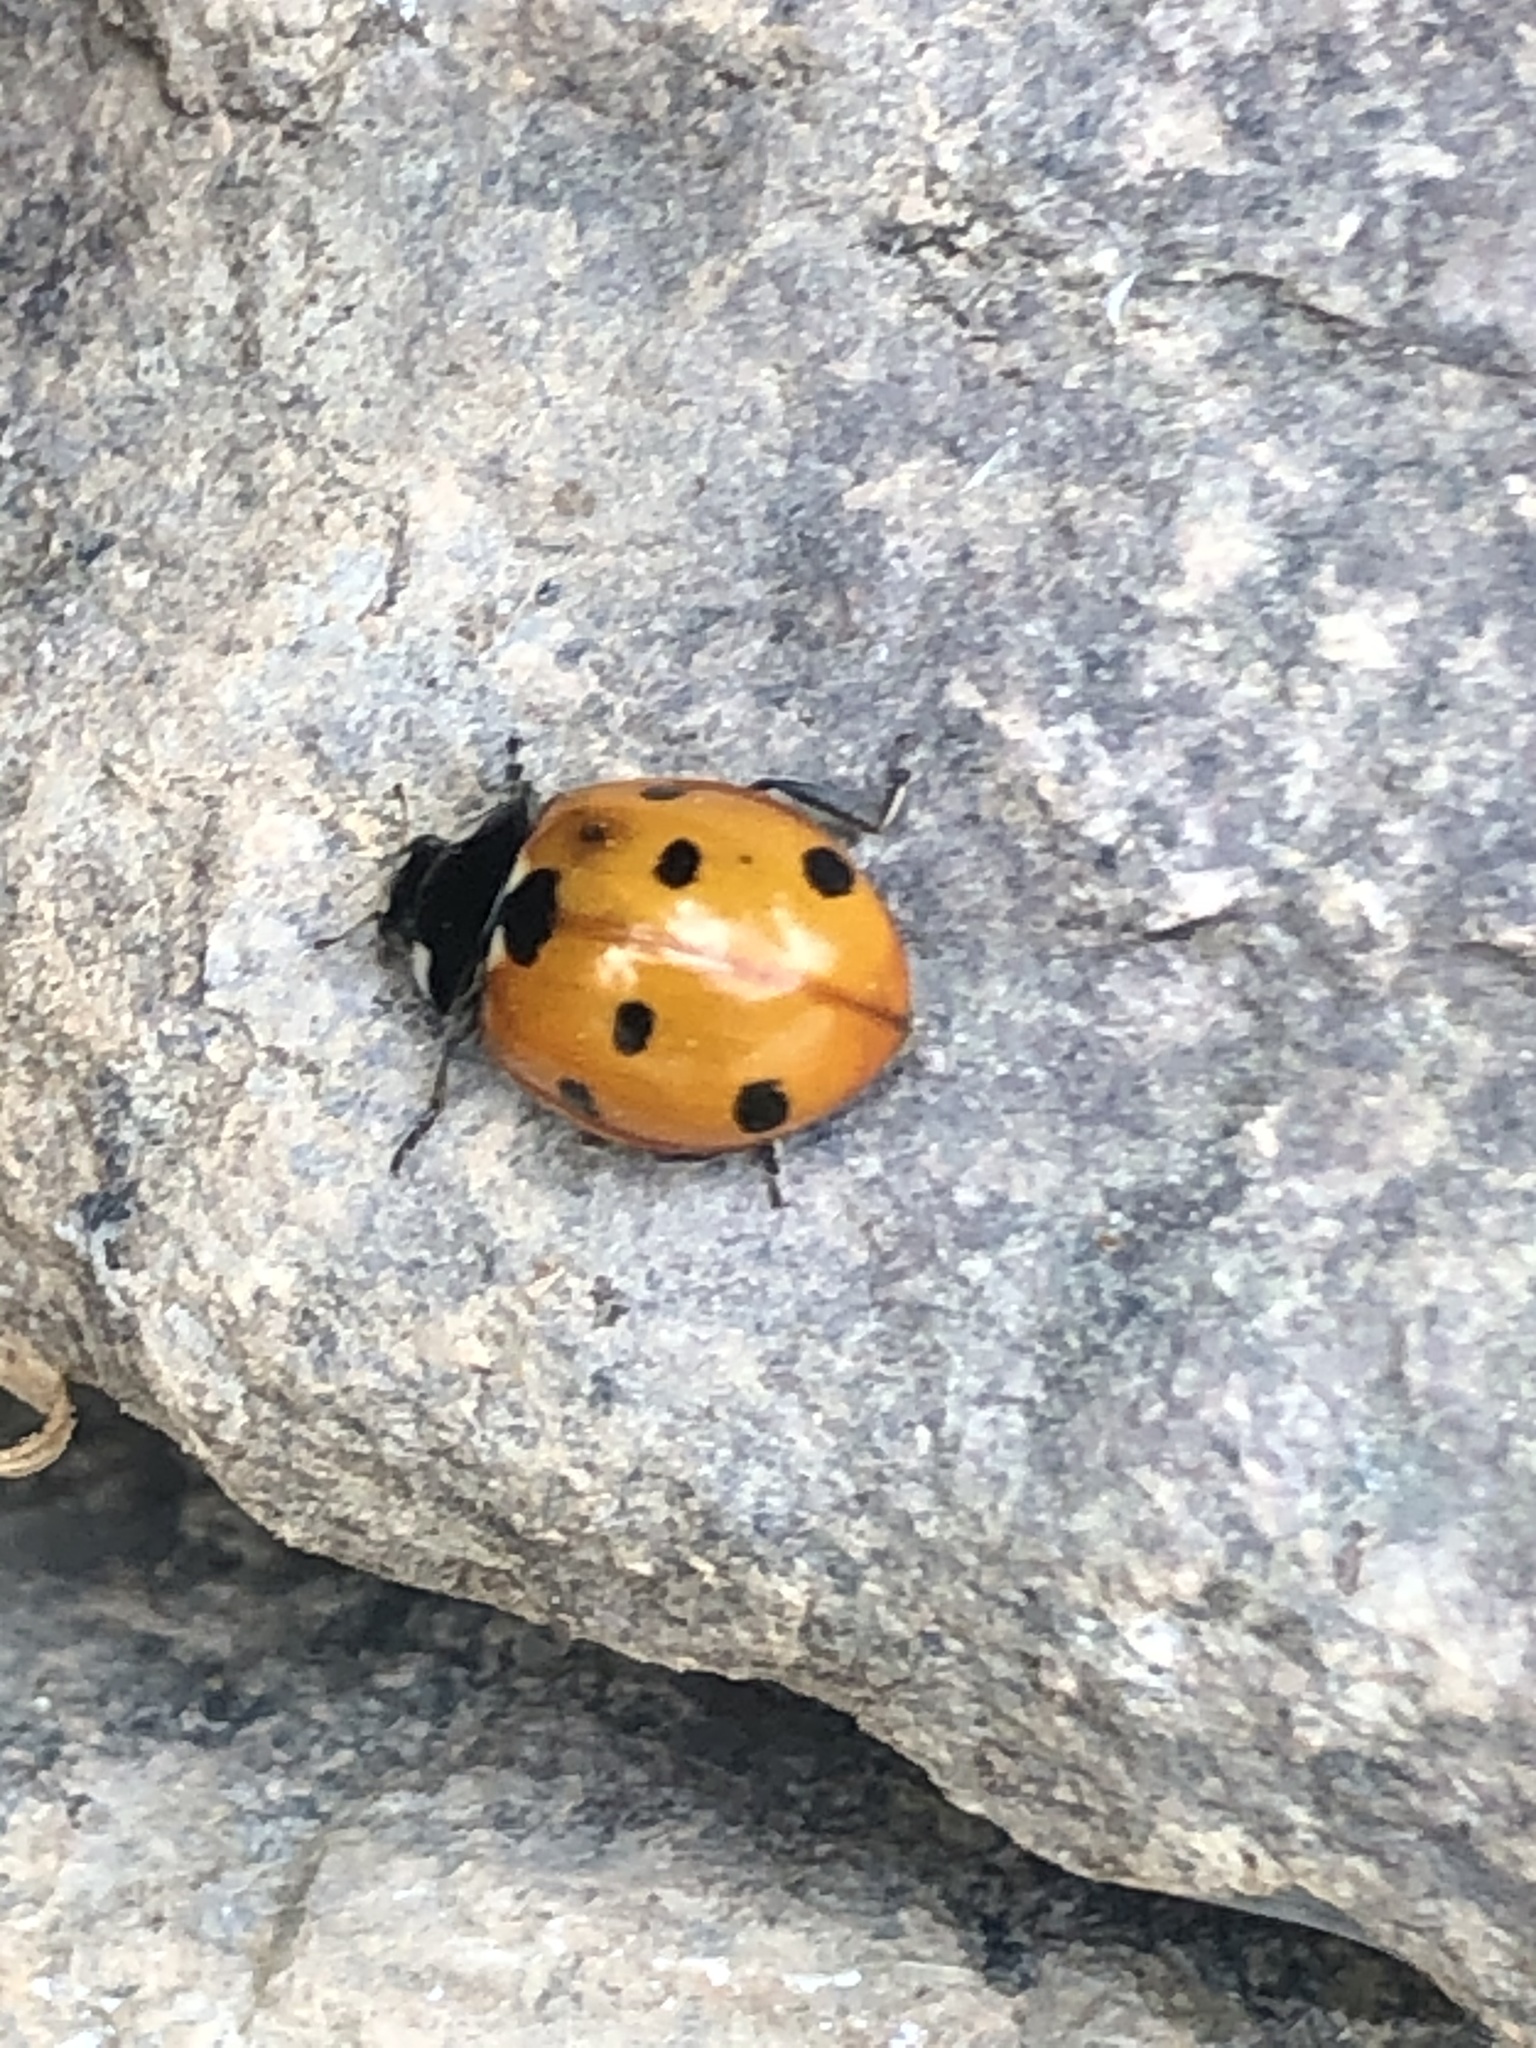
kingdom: Animalia
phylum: Arthropoda
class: Insecta
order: Coleoptera
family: Coccinellidae
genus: Coccinella
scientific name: Coccinella algerica
